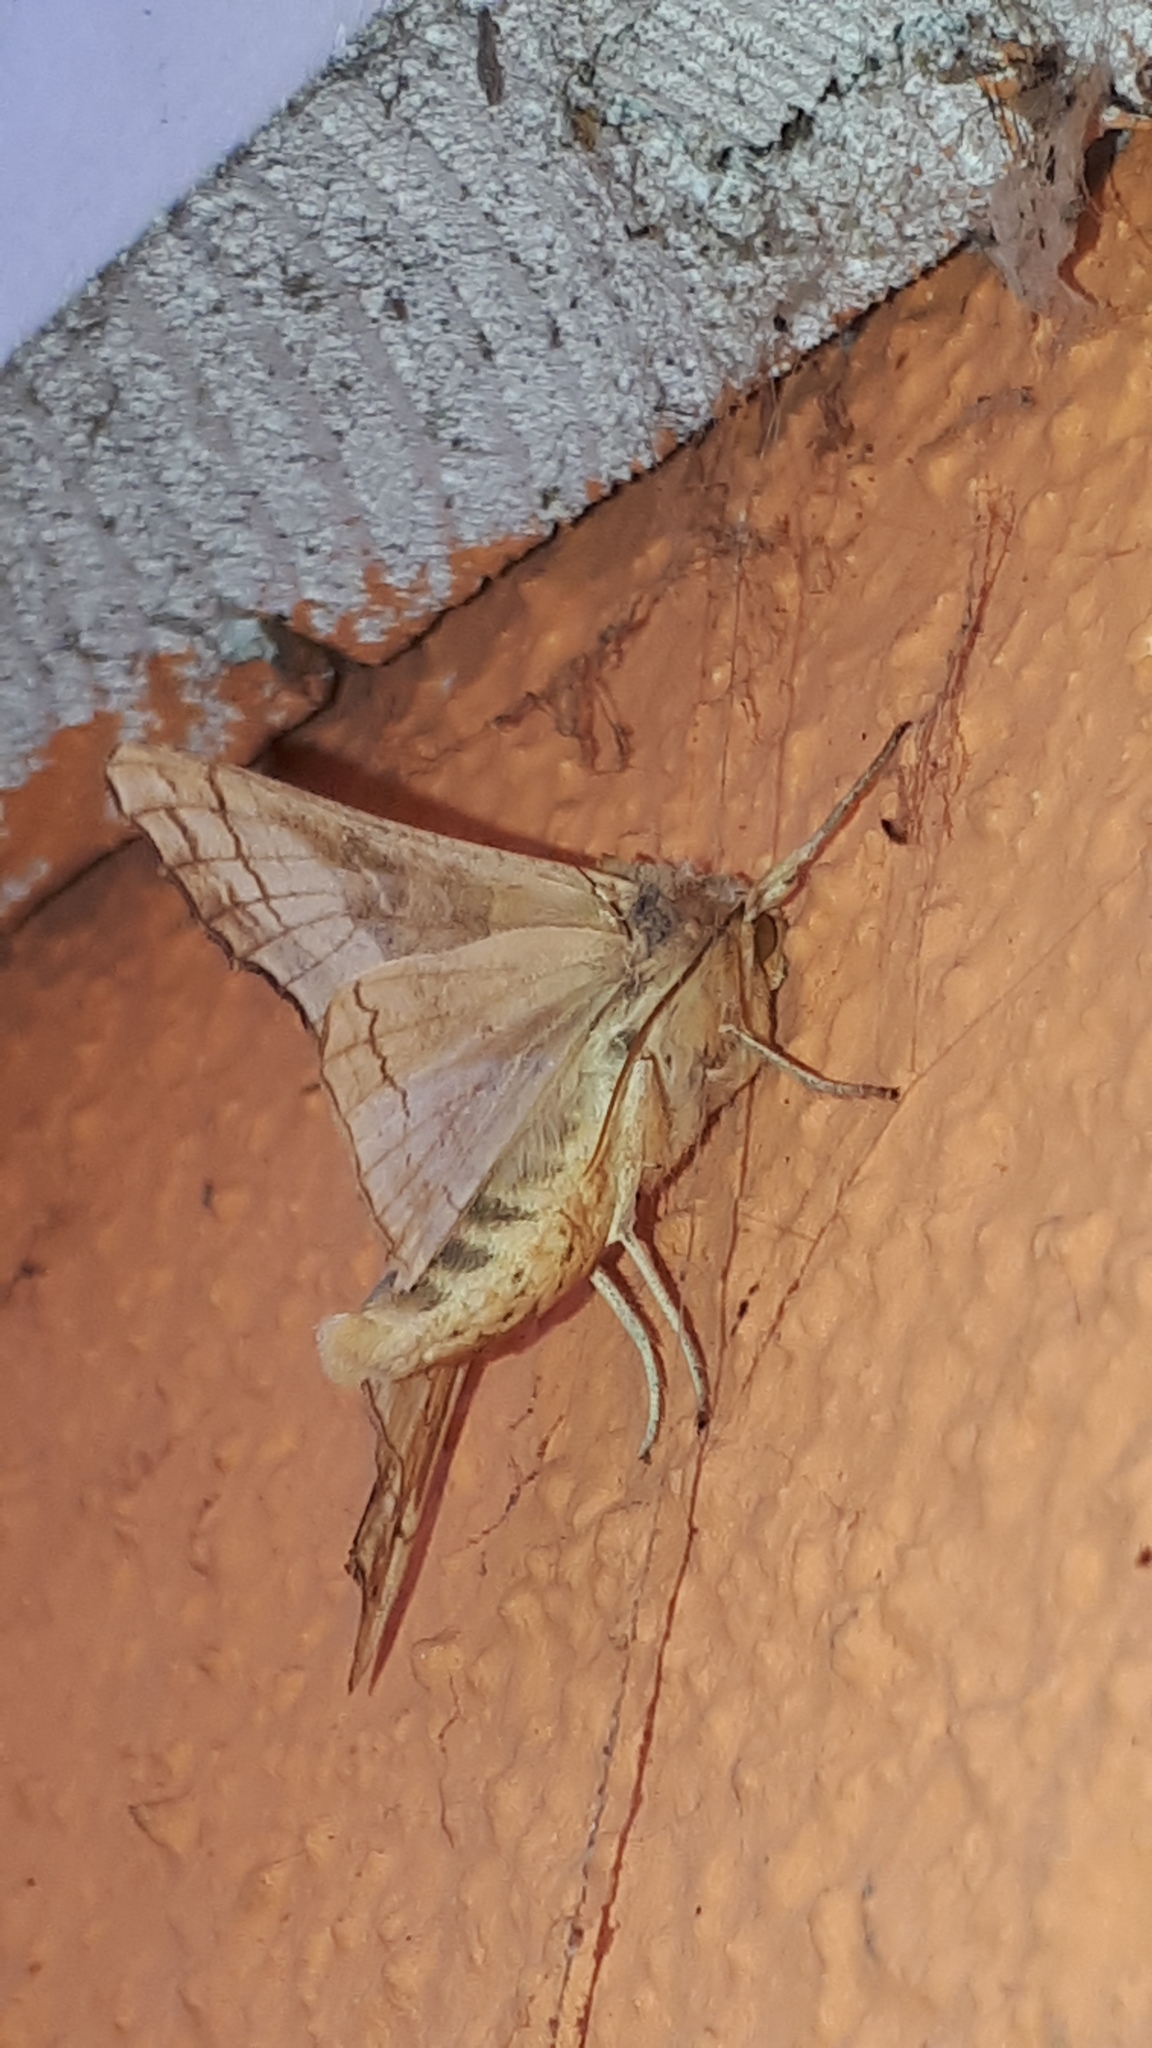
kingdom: Animalia
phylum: Arthropoda
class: Insecta
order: Lepidoptera
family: Noctuidae
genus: Phlogophora
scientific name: Phlogophora meticulosa
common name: Angle shades
